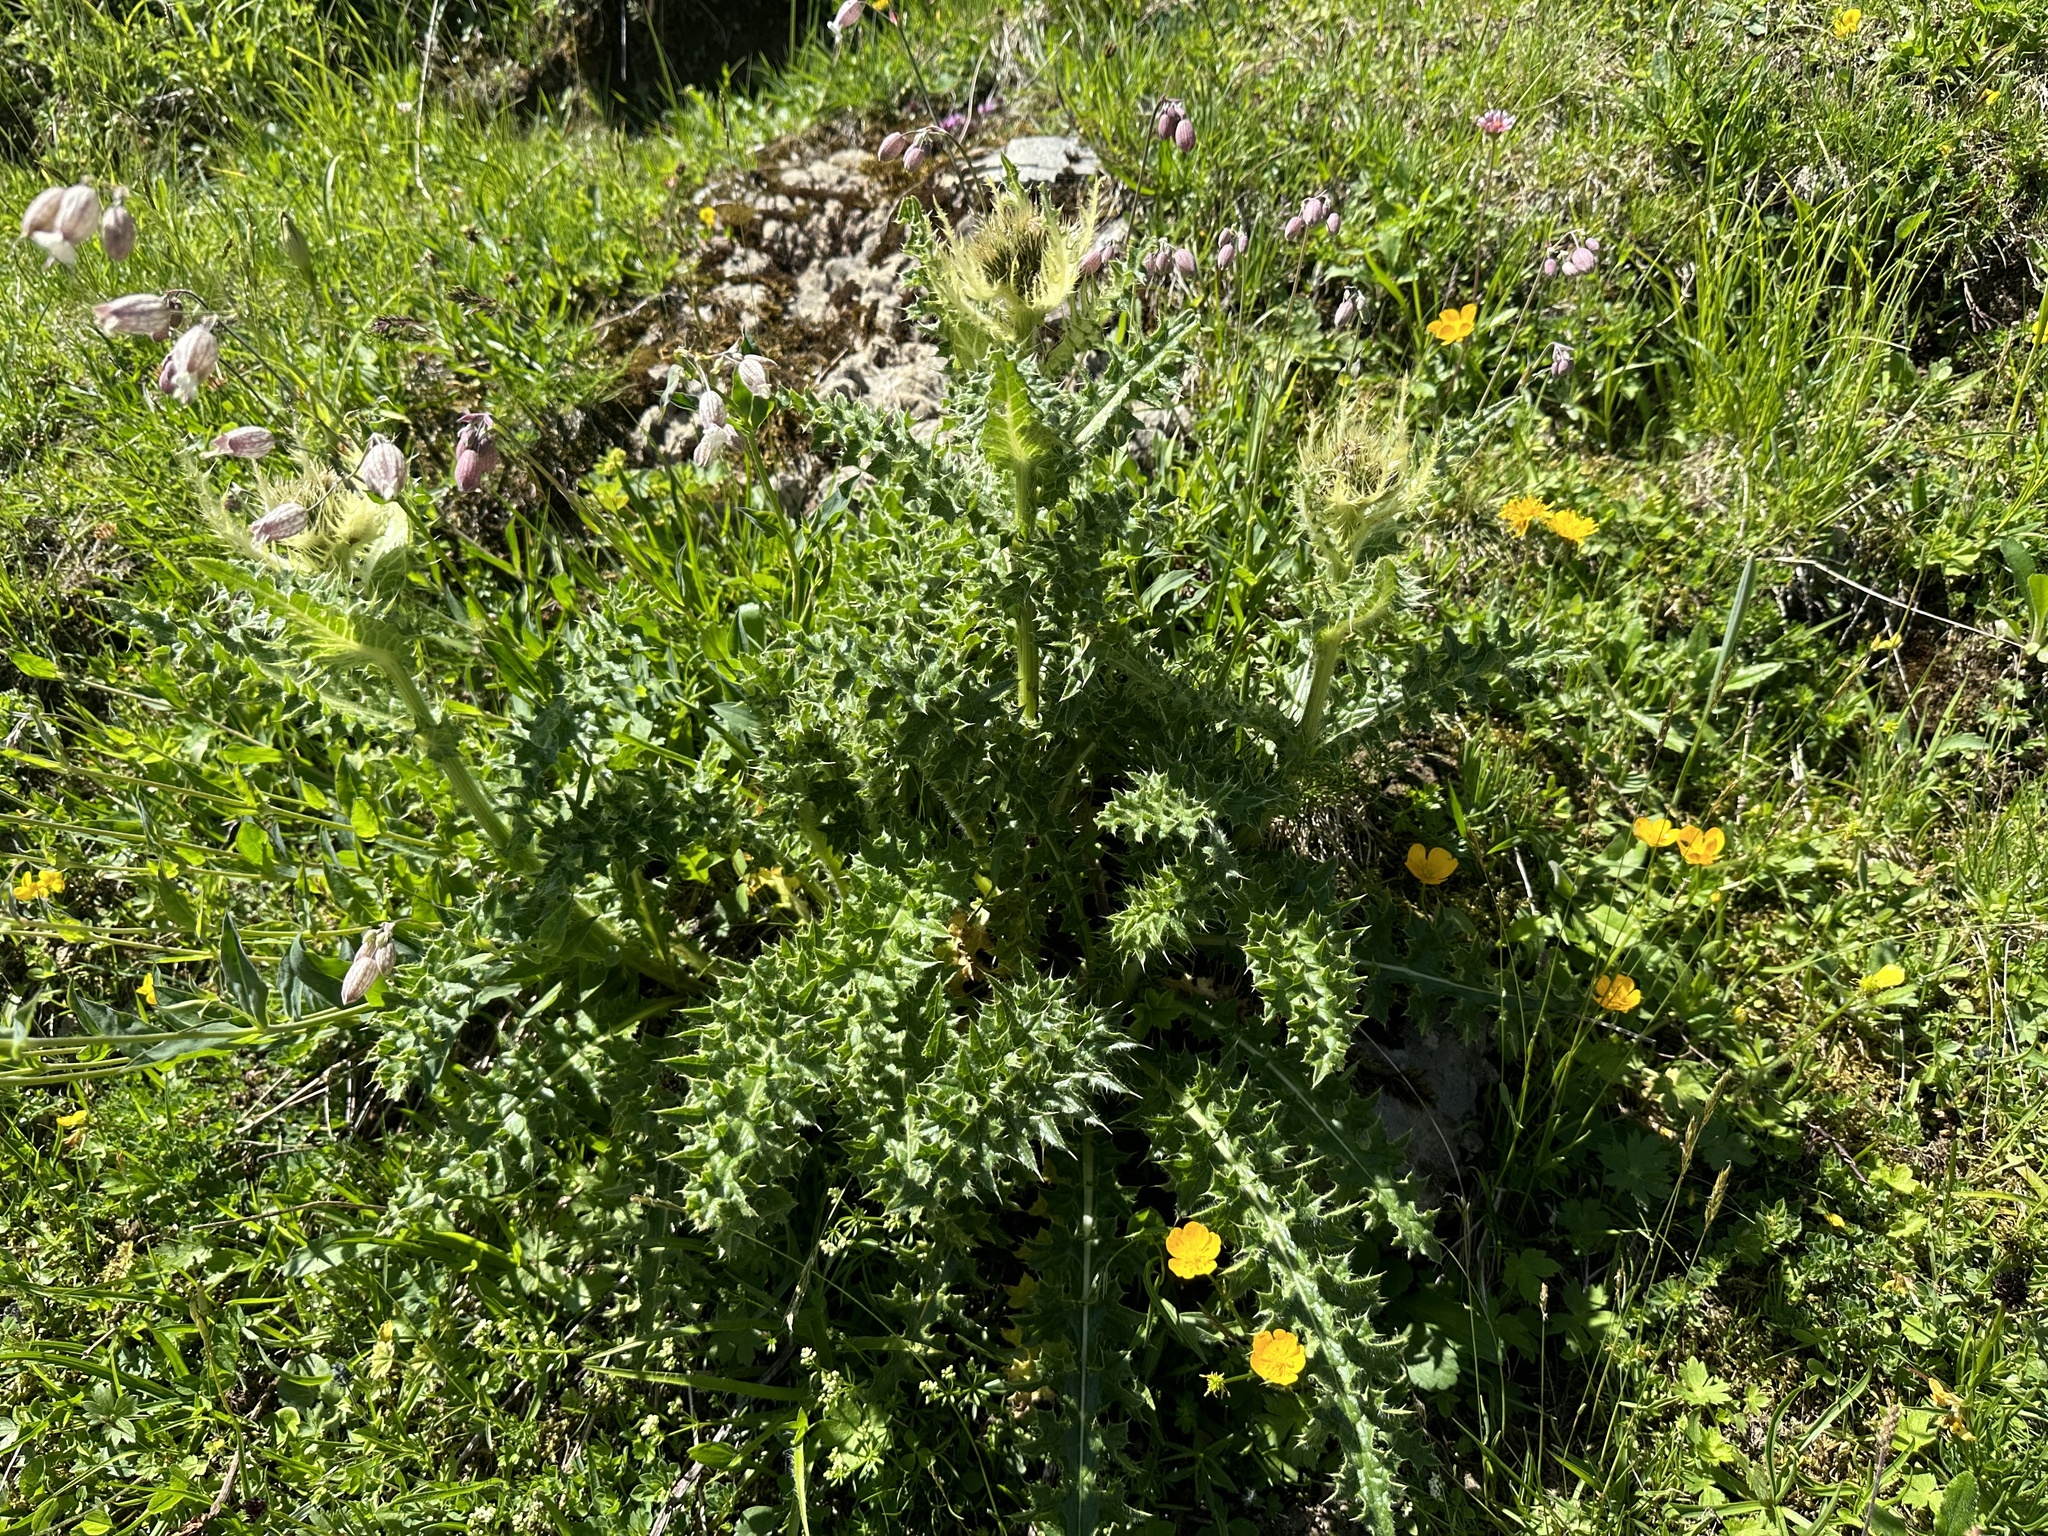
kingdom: Plantae
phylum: Tracheophyta
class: Magnoliopsida
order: Asterales
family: Asteraceae
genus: Cirsium
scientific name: Cirsium spinosissimum
